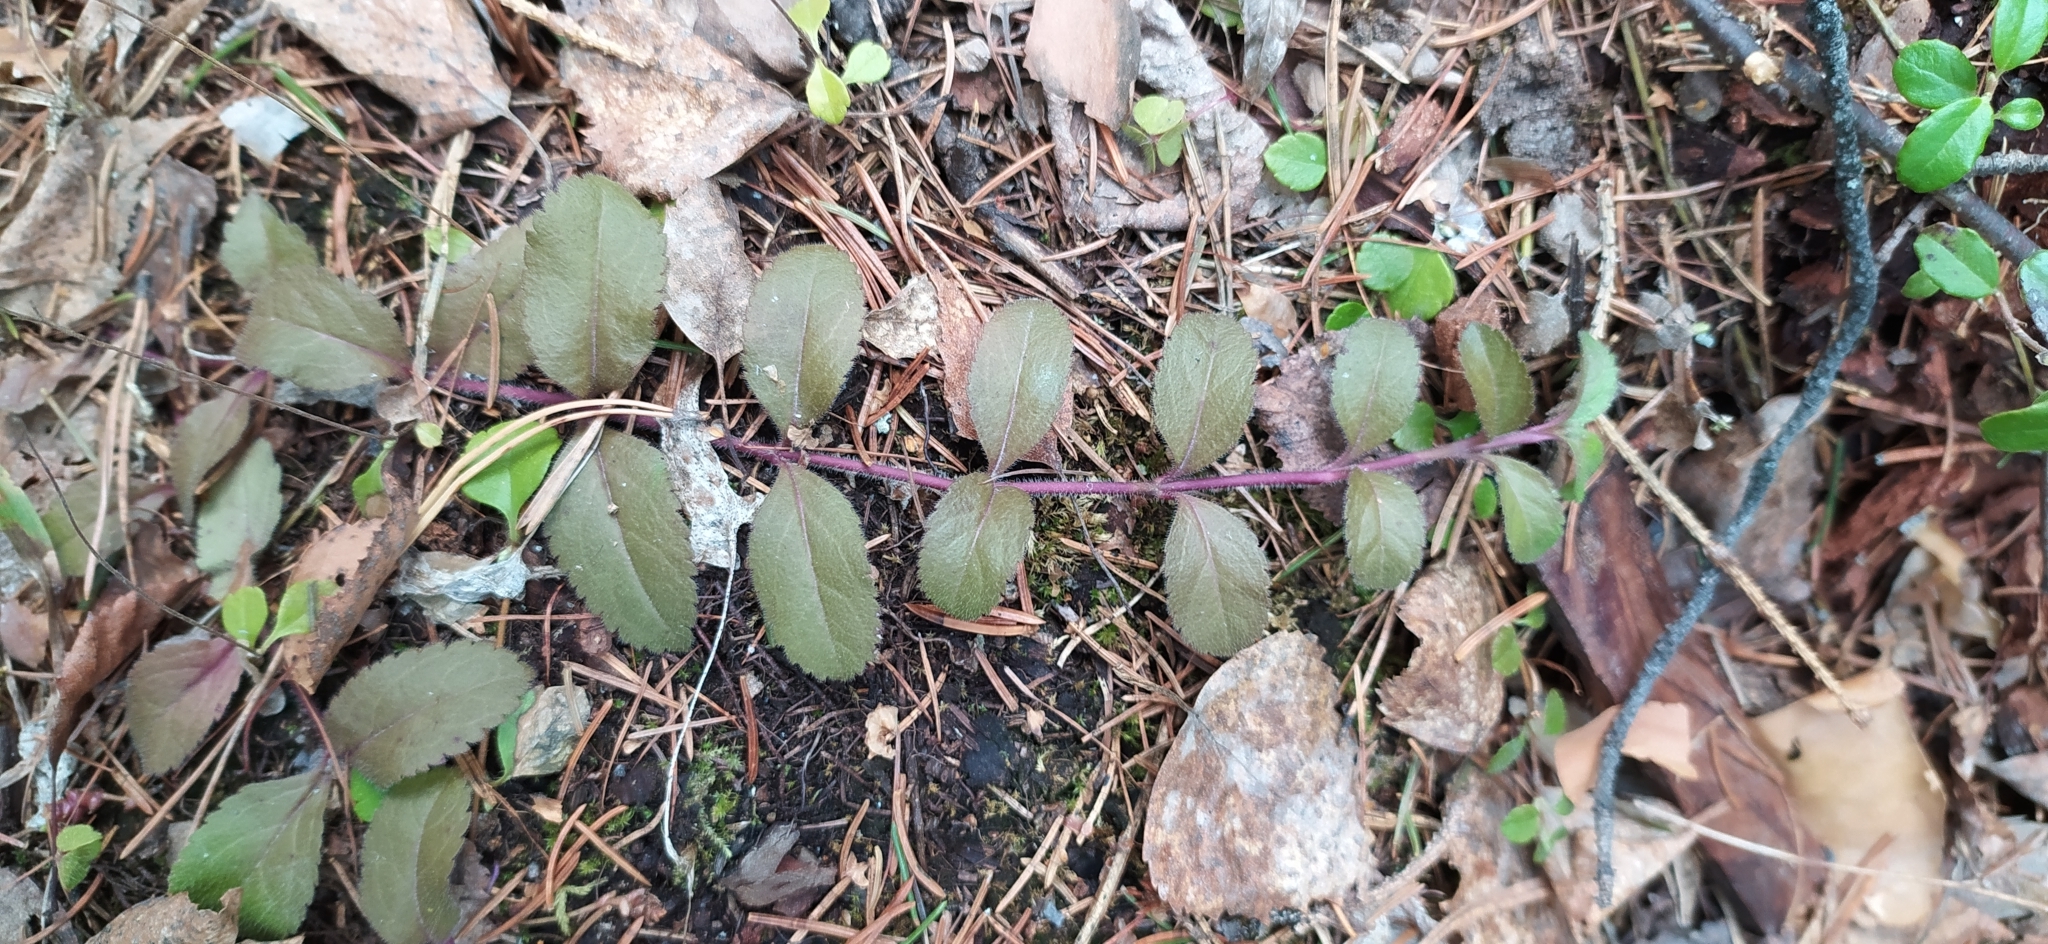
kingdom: Plantae
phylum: Tracheophyta
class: Magnoliopsida
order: Lamiales
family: Plantaginaceae
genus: Veronica
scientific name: Veronica officinalis
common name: Common speedwell
